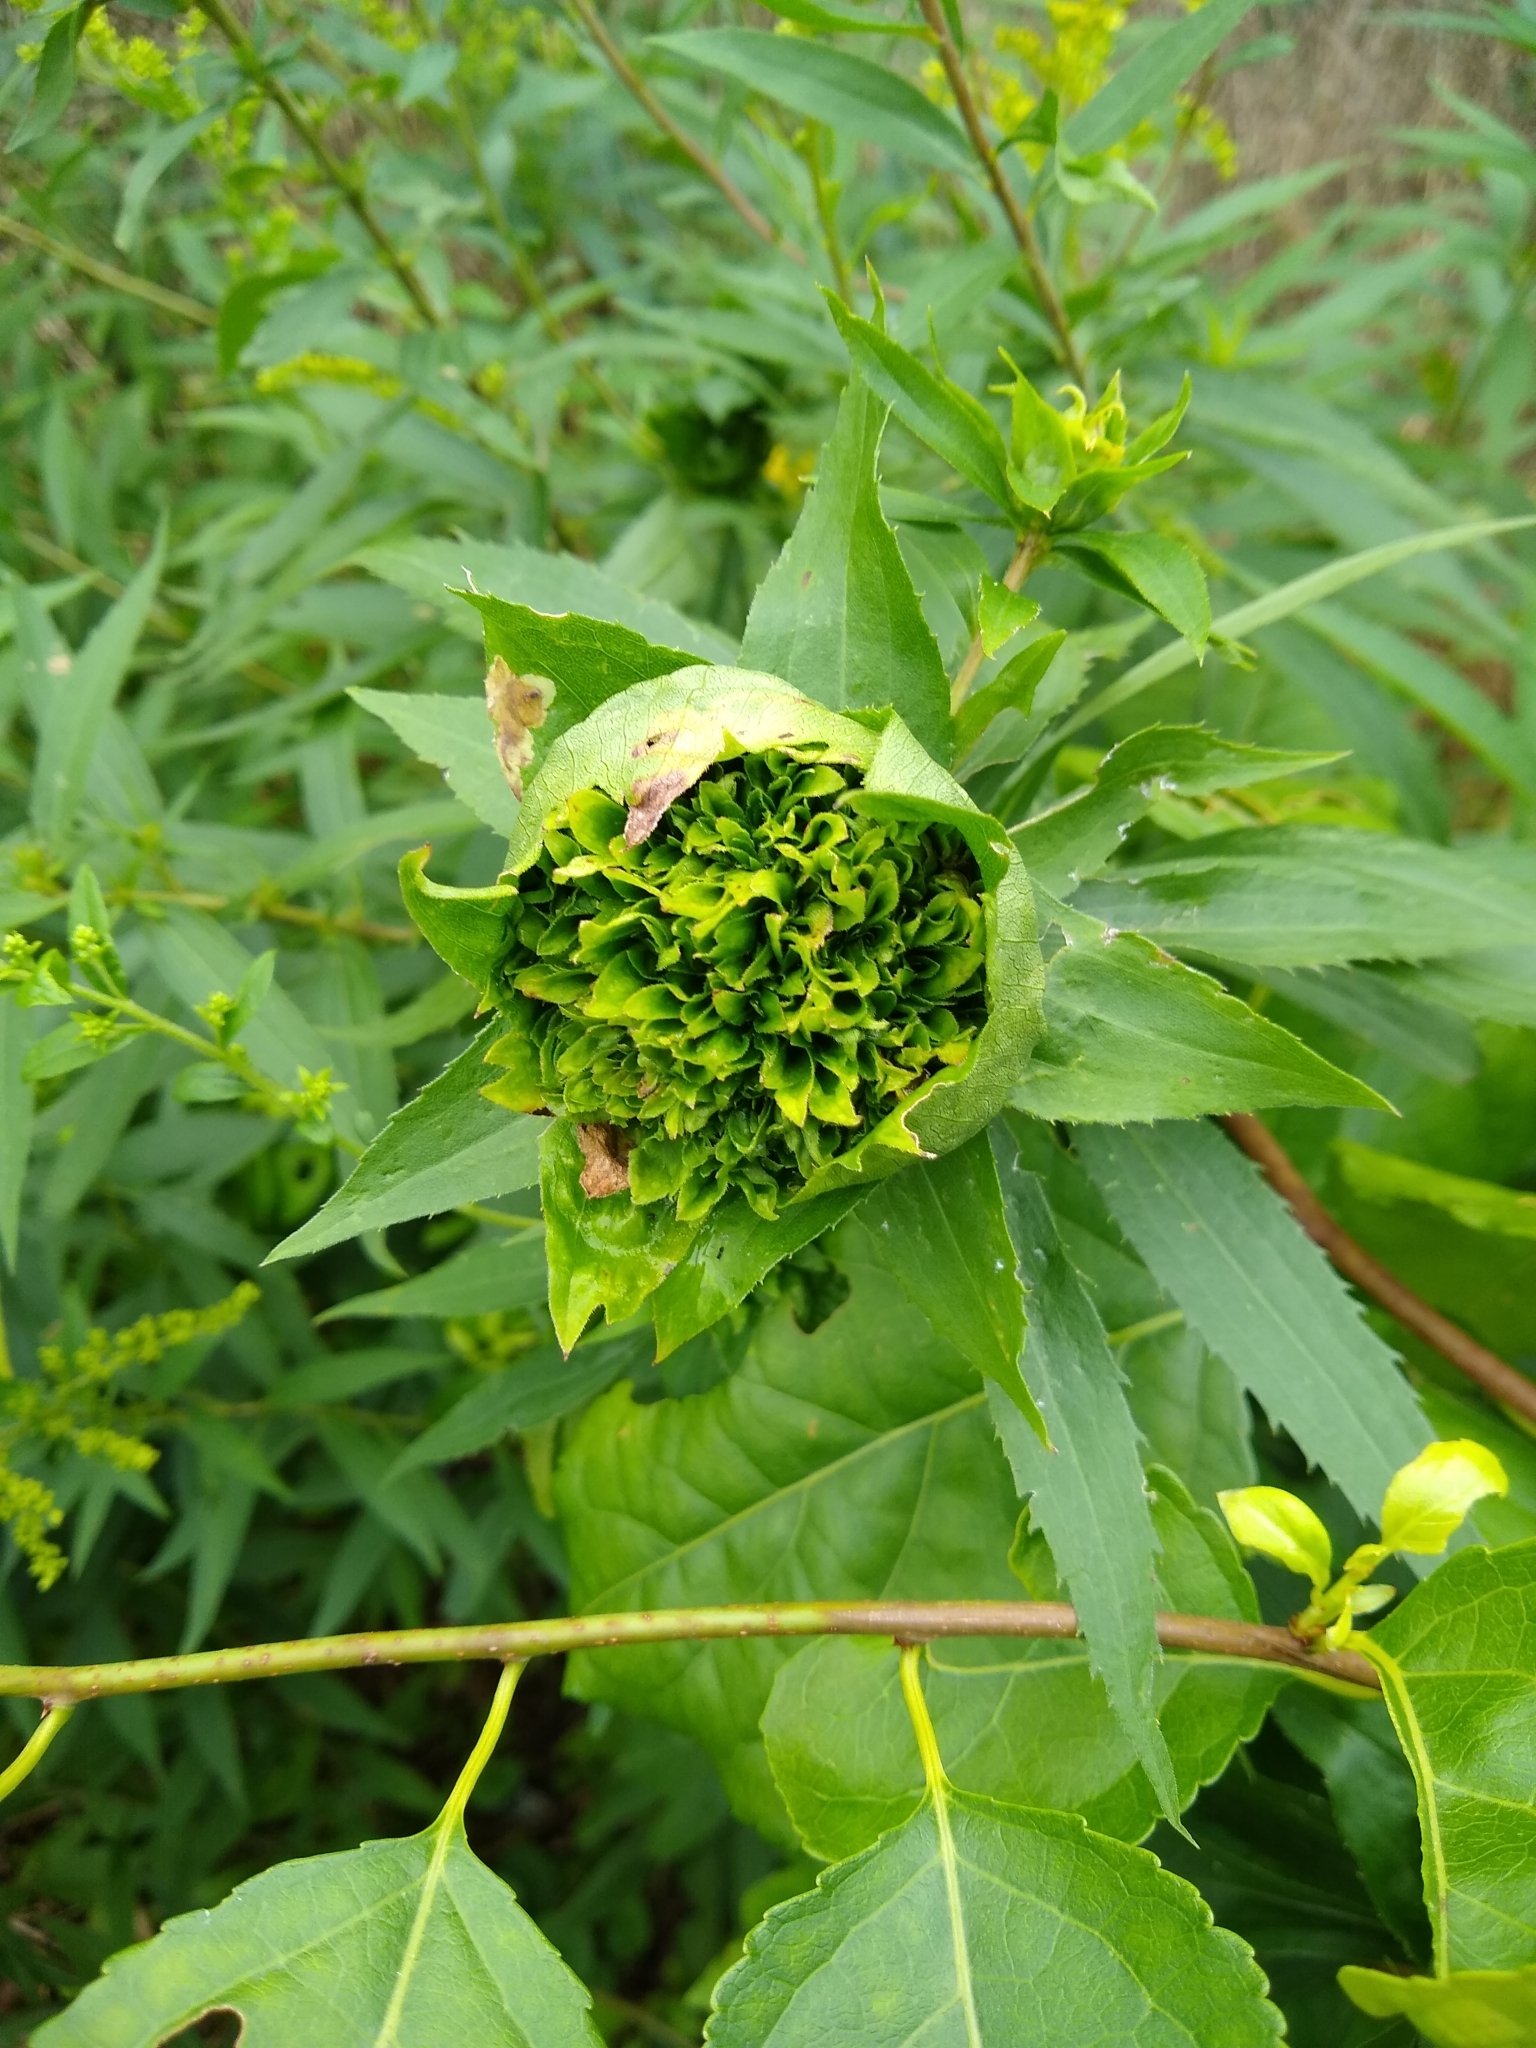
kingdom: Animalia
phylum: Arthropoda
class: Insecta
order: Diptera
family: Cecidomyiidae
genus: Rhopalomyia
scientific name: Rhopalomyia capitata
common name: Giant goldenrod bunch gall midge
